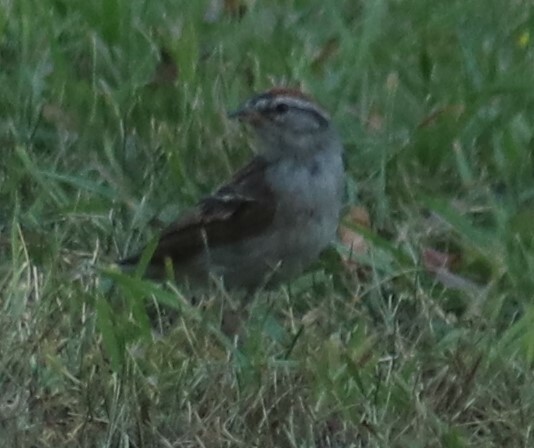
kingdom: Animalia
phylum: Chordata
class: Aves
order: Passeriformes
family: Passerellidae
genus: Spizella
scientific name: Spizella passerina
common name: Chipping sparrow
